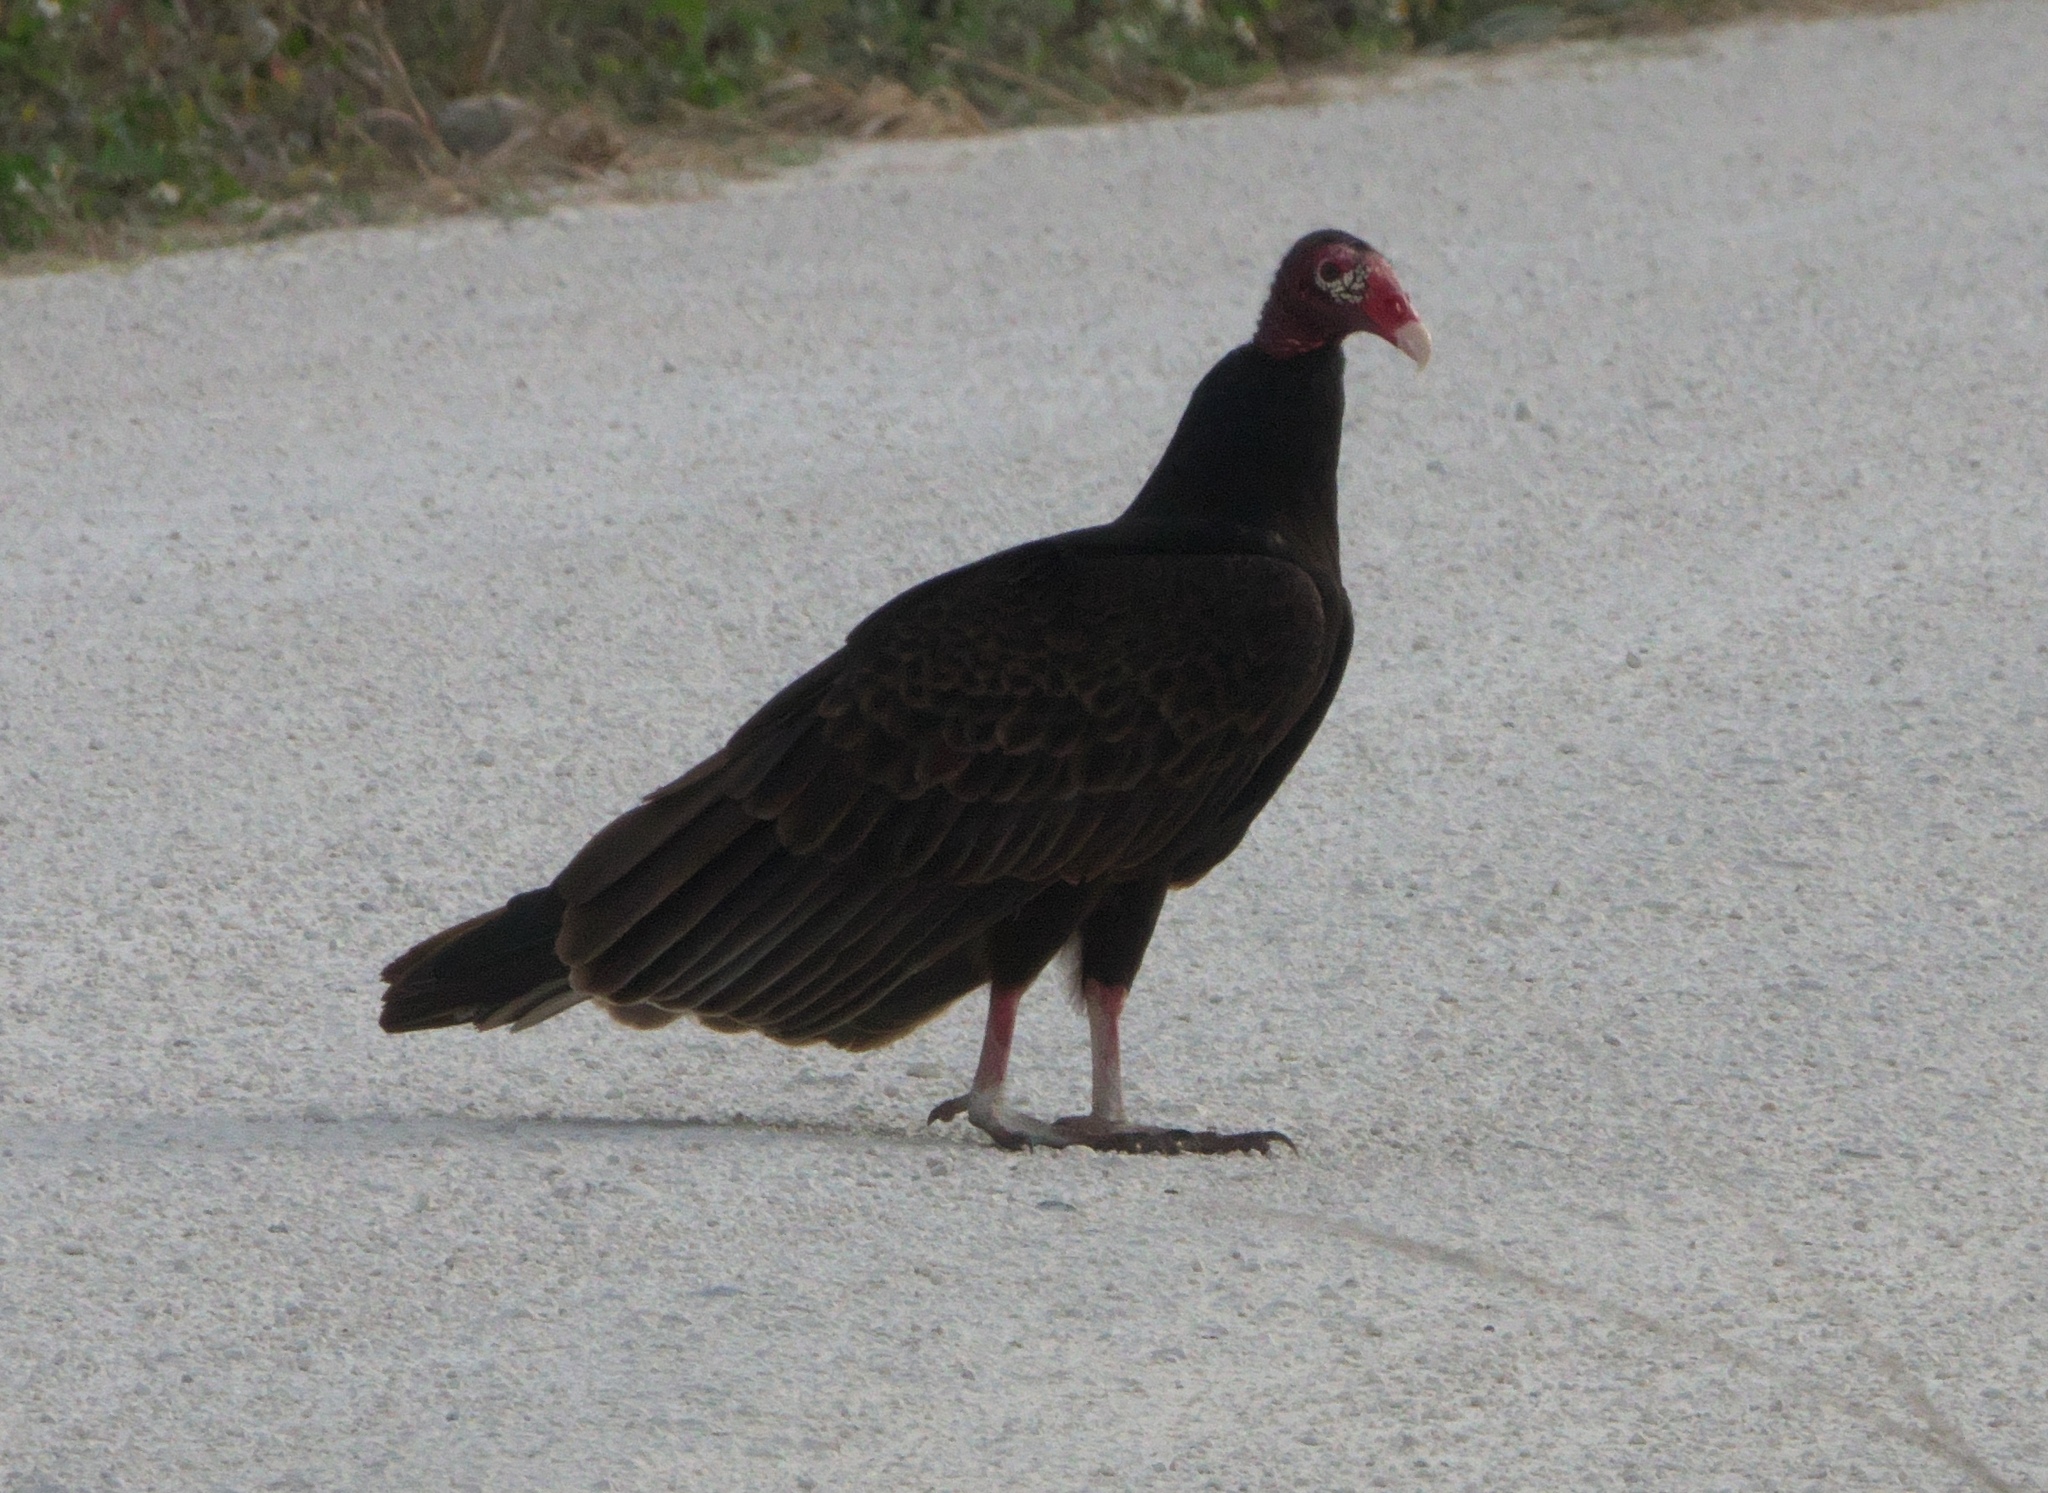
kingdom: Animalia
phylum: Chordata
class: Aves
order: Accipitriformes
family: Cathartidae
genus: Cathartes
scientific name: Cathartes aura
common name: Turkey vulture
